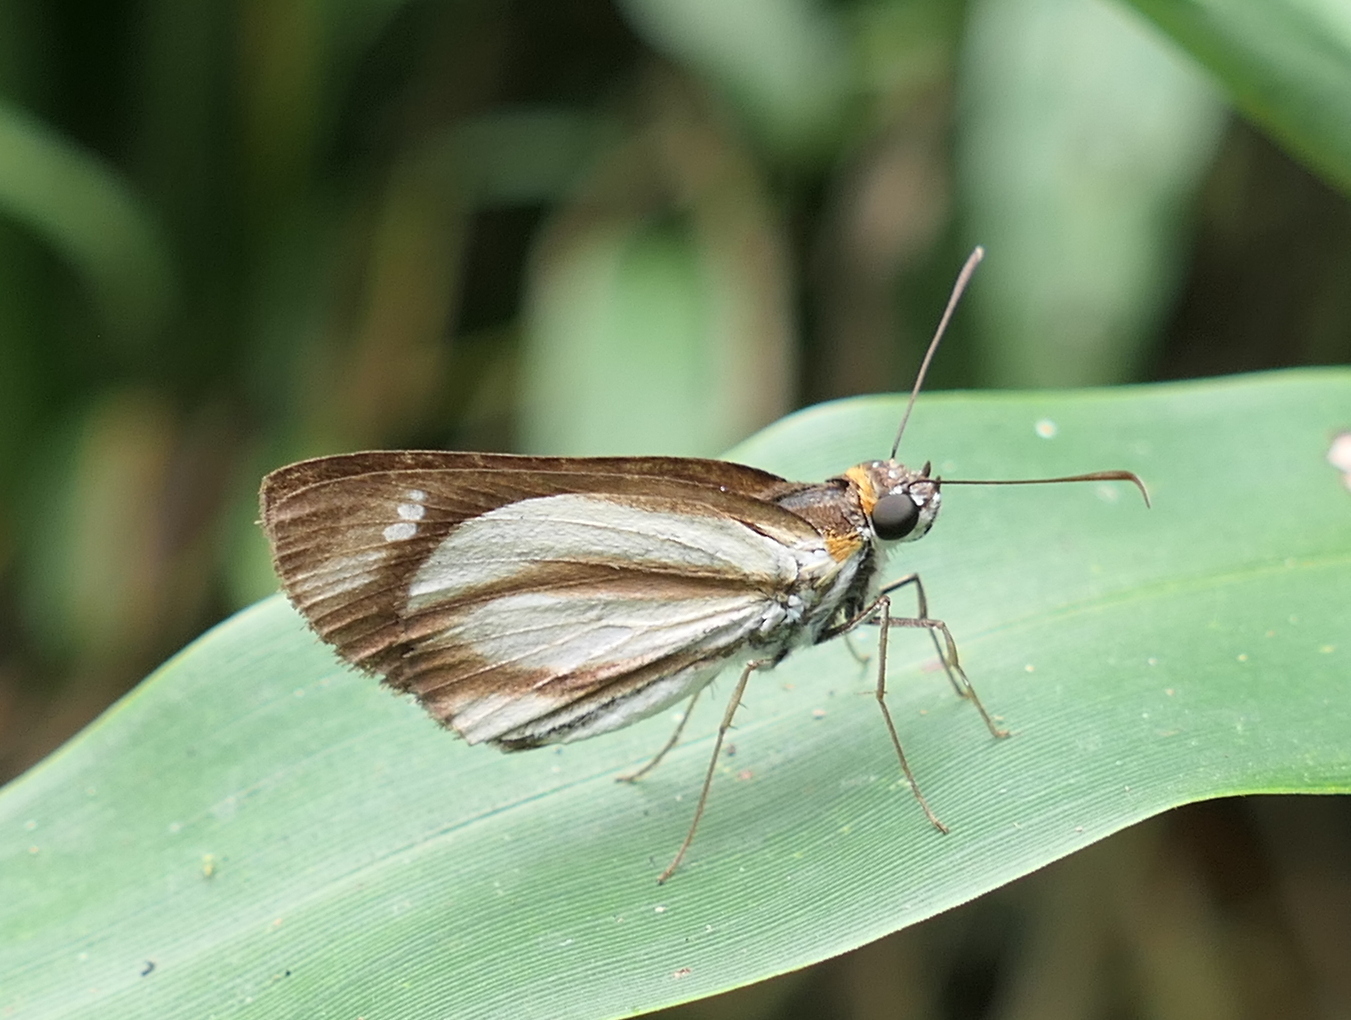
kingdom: Animalia
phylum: Arthropoda
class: Insecta
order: Lepidoptera
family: Hesperiidae
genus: Vettius
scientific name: Vettius marcus
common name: Marcus skipper
